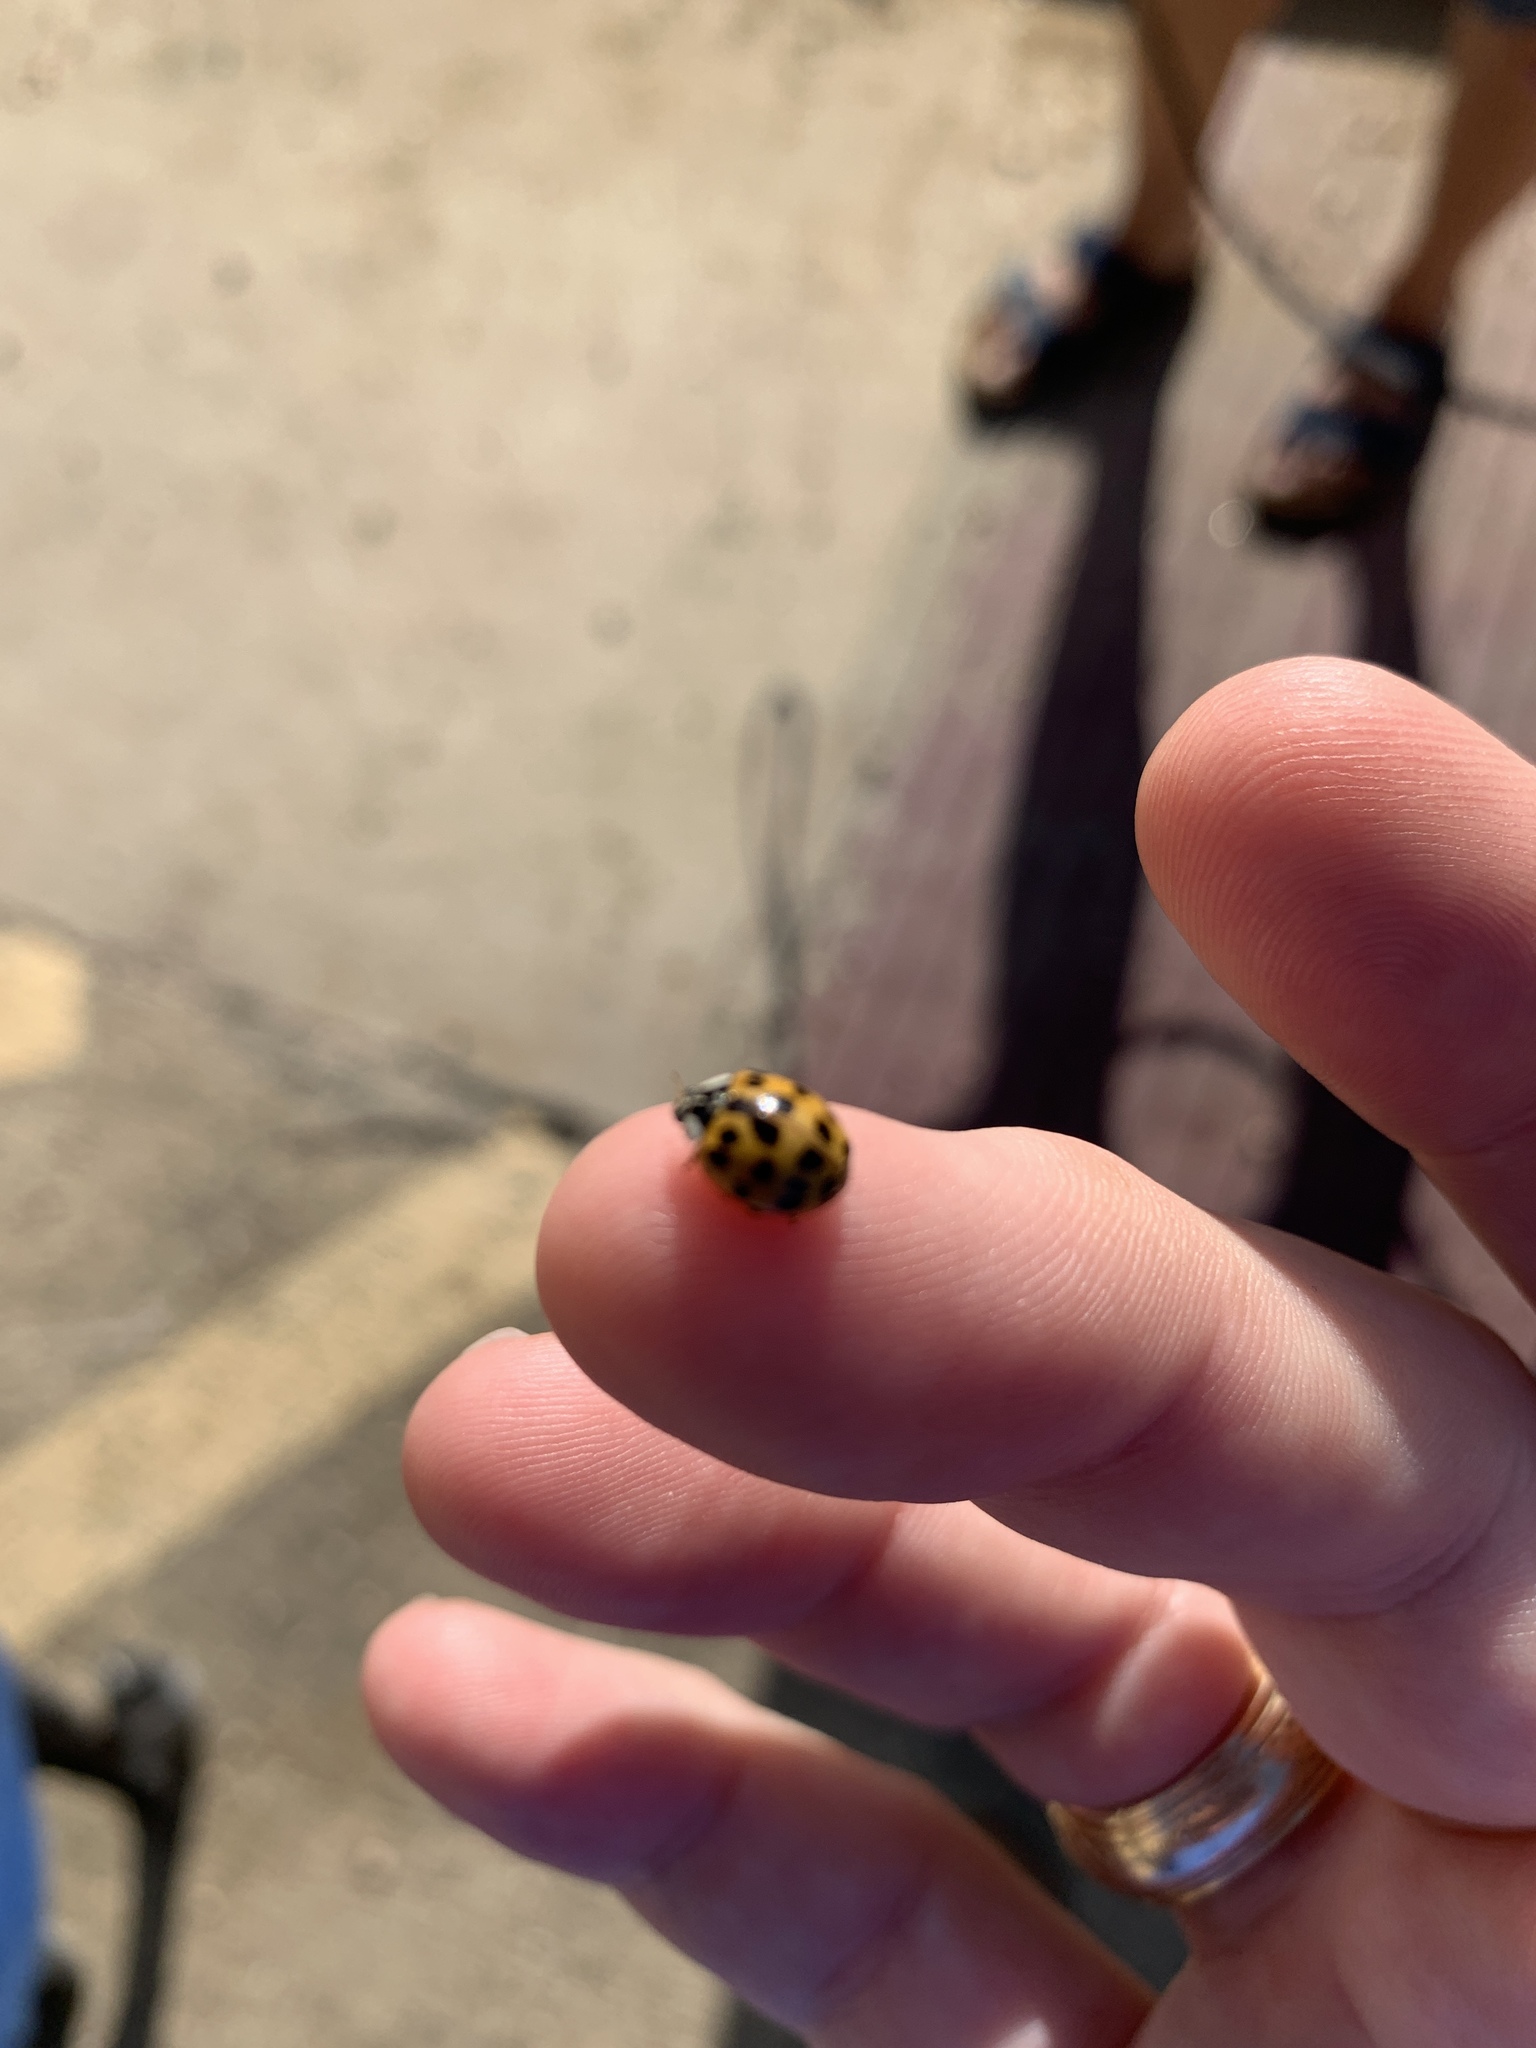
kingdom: Animalia
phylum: Arthropoda
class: Insecta
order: Coleoptera
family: Coccinellidae
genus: Harmonia
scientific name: Harmonia axyridis
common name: Harlequin ladybird
